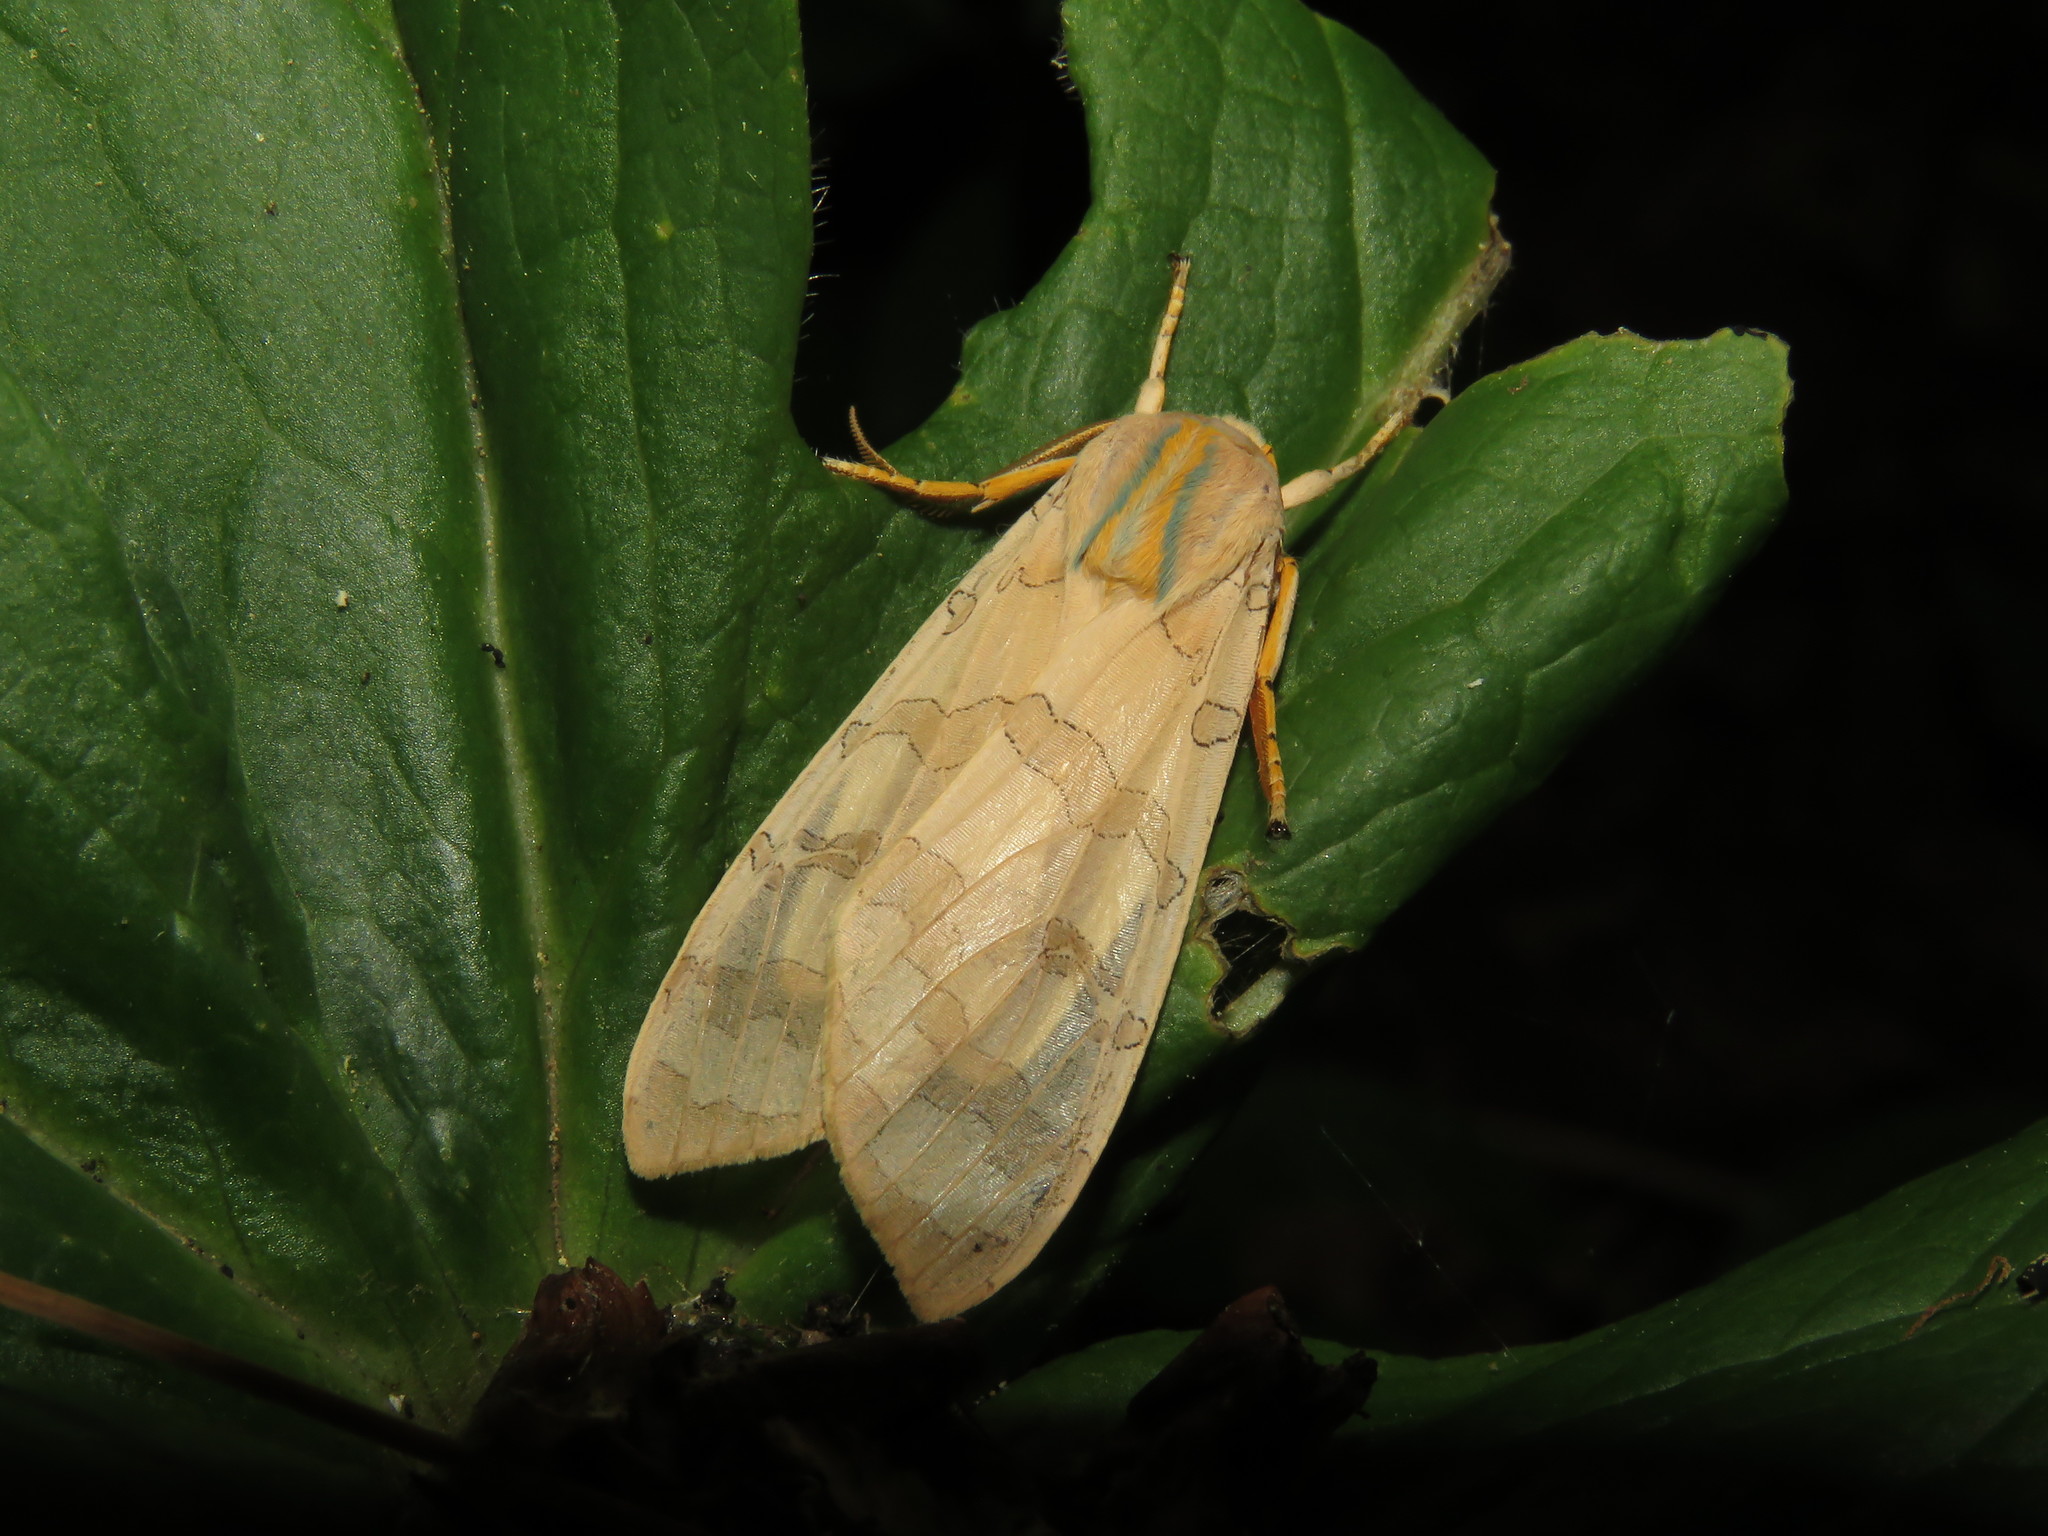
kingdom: Animalia
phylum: Arthropoda
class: Insecta
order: Lepidoptera
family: Erebidae
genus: Halysidota
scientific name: Halysidota tessellaris
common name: Banded tussock moth
